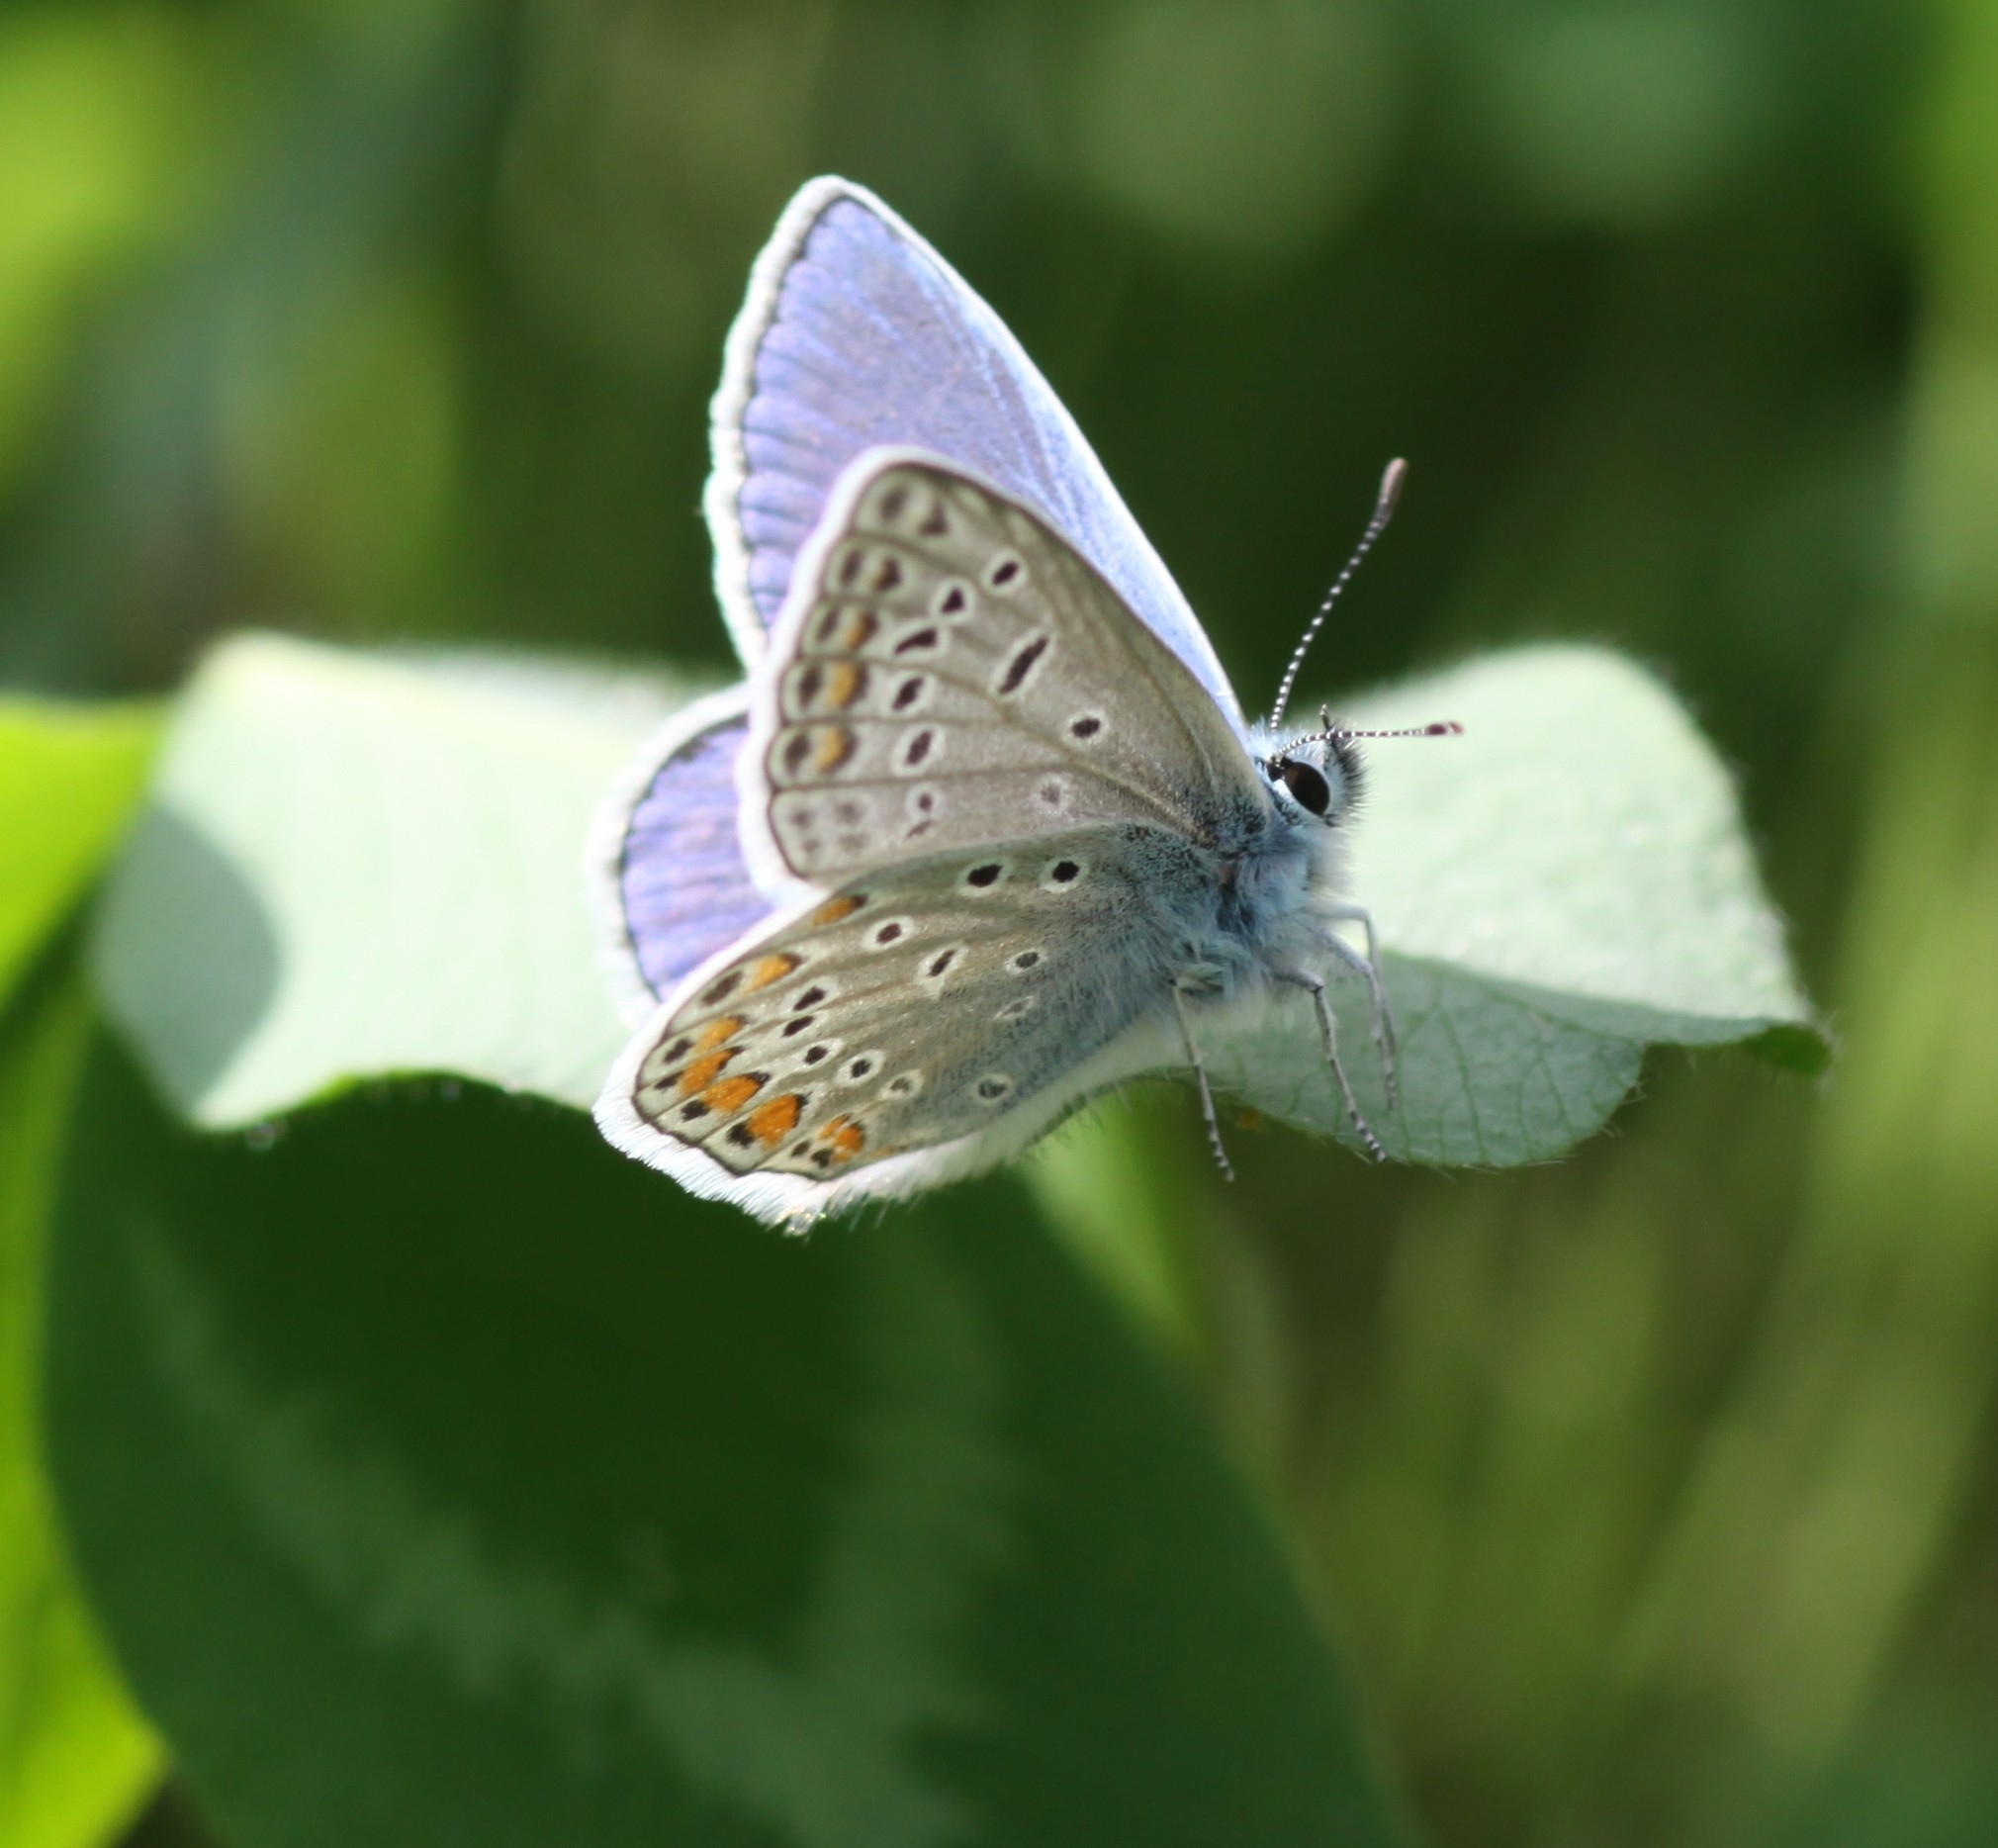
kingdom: Animalia
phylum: Arthropoda
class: Insecta
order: Lepidoptera
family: Lycaenidae
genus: Polyommatus
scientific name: Polyommatus icarus
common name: Common blue
